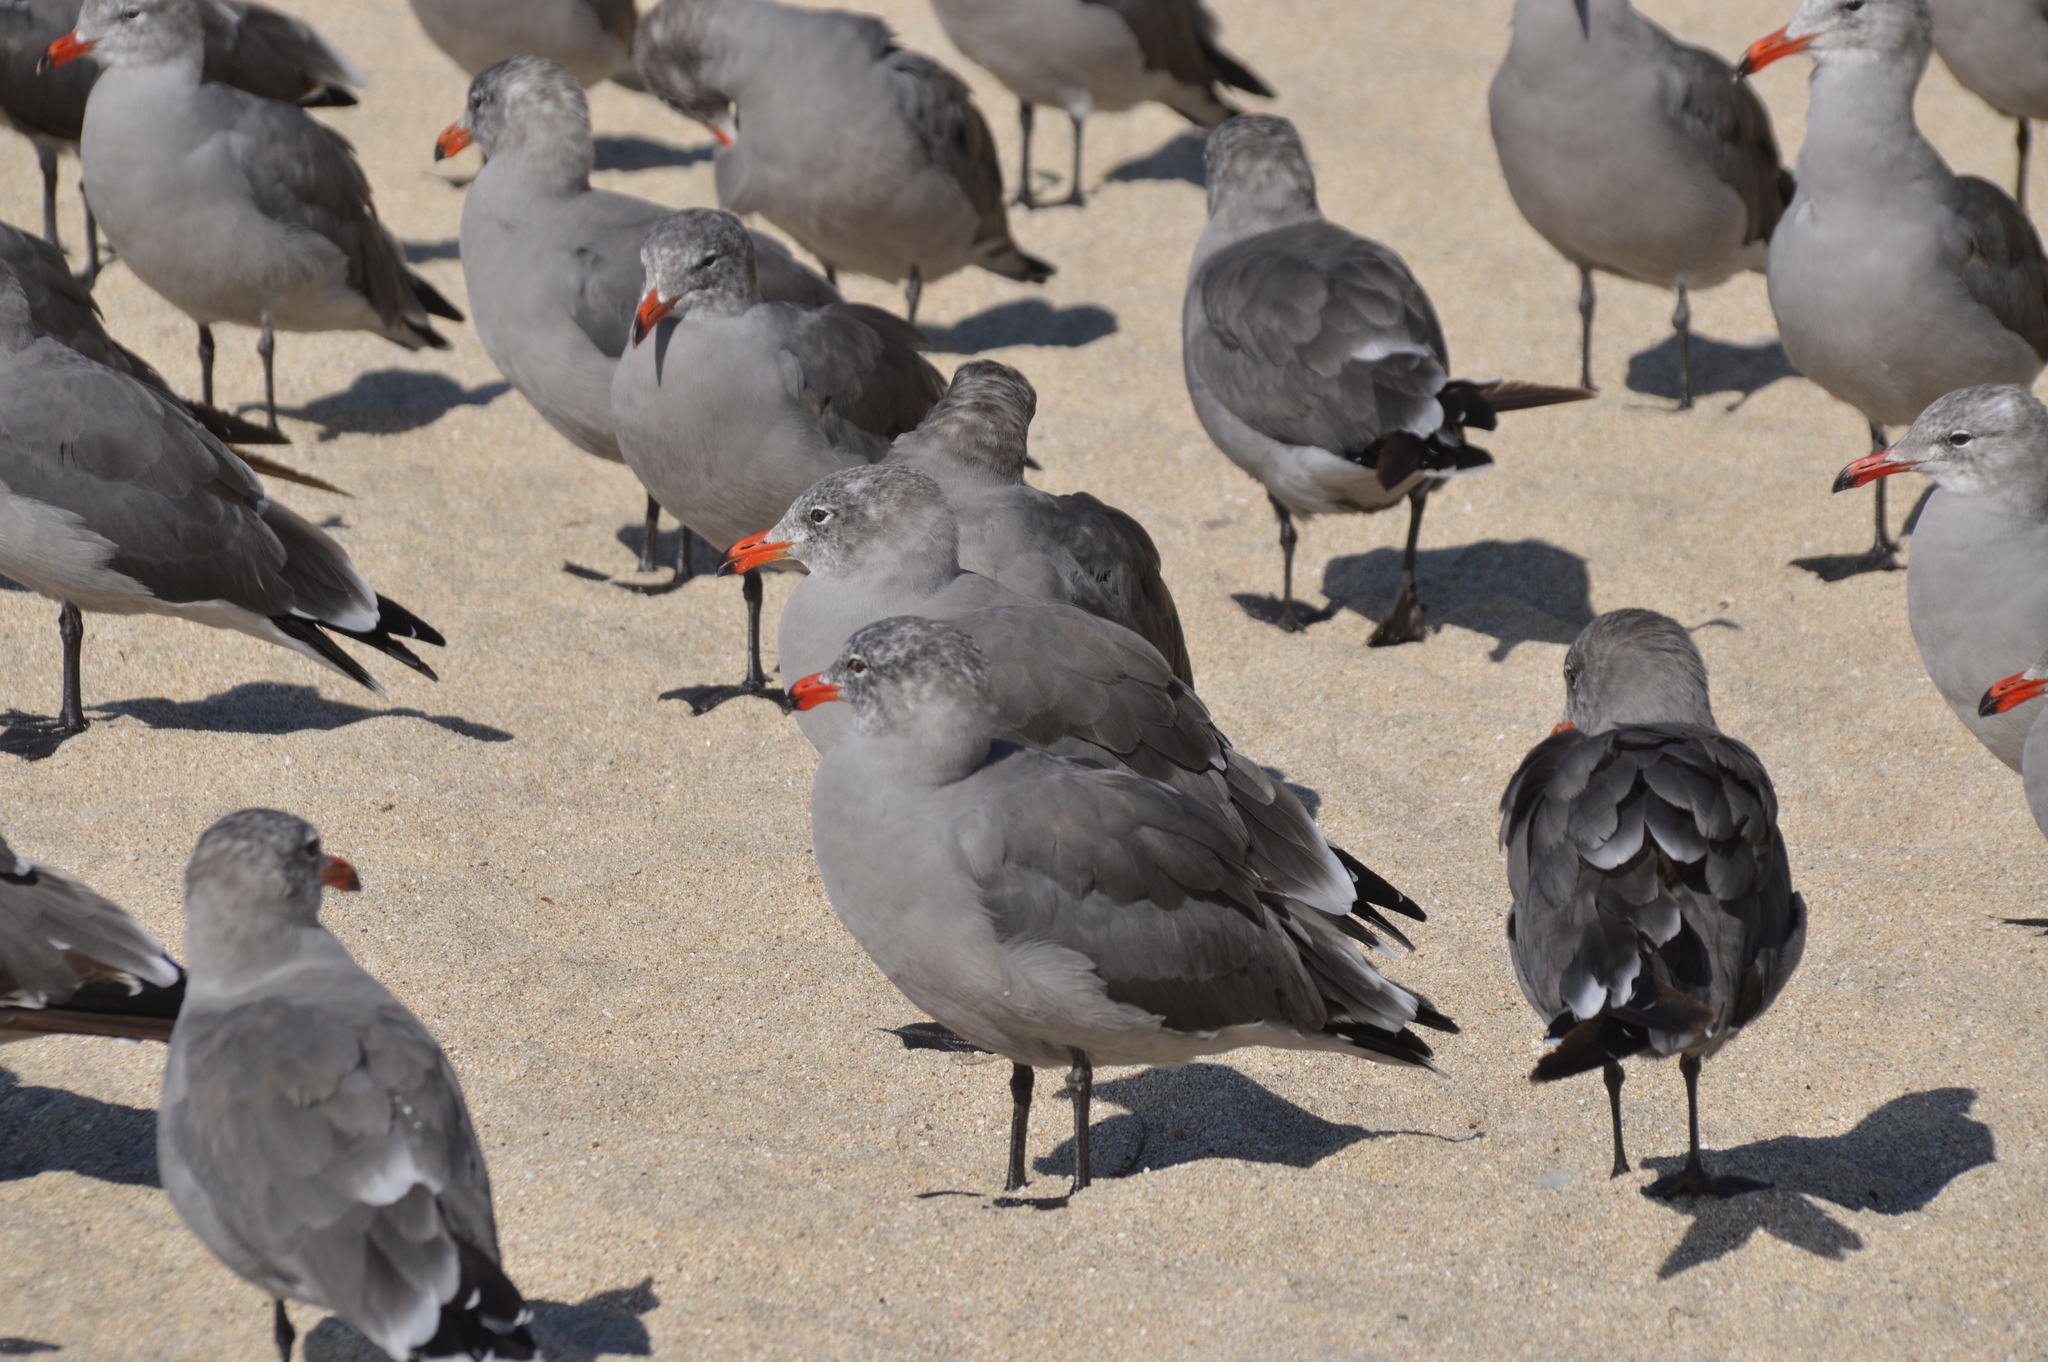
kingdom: Animalia
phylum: Chordata
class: Aves
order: Charadriiformes
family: Laridae
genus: Larus
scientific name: Larus heermanni
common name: Heermann's gull
